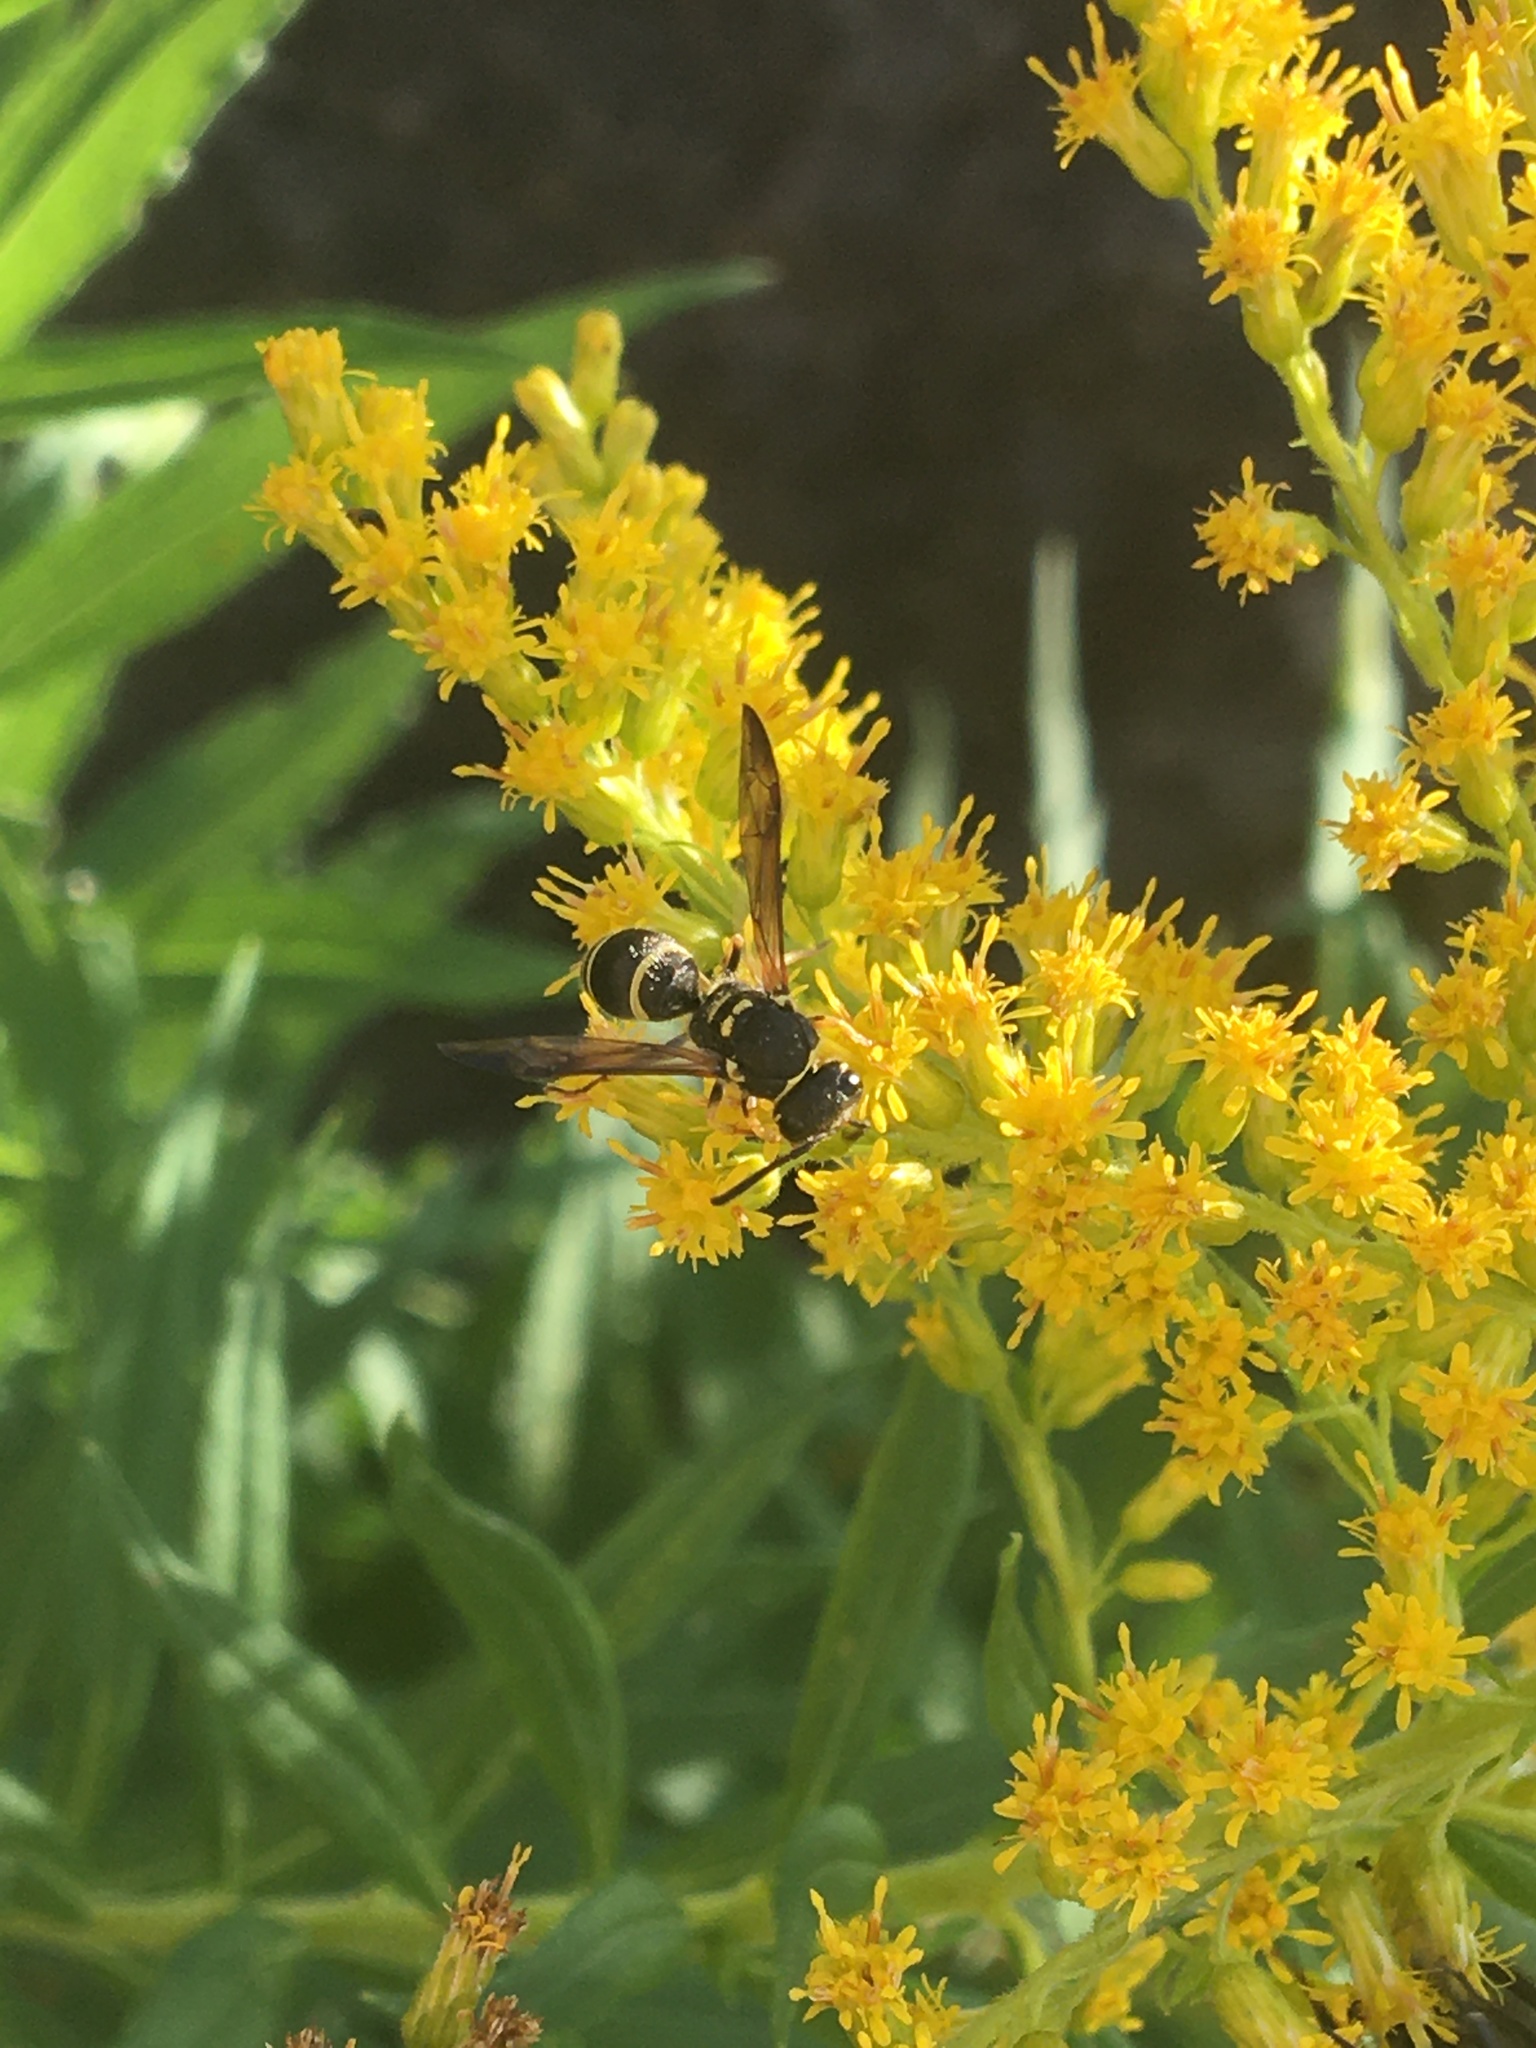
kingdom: Animalia
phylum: Arthropoda
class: Insecta
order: Hymenoptera
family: Vespidae
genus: Ancistrocerus
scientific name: Ancistrocerus
